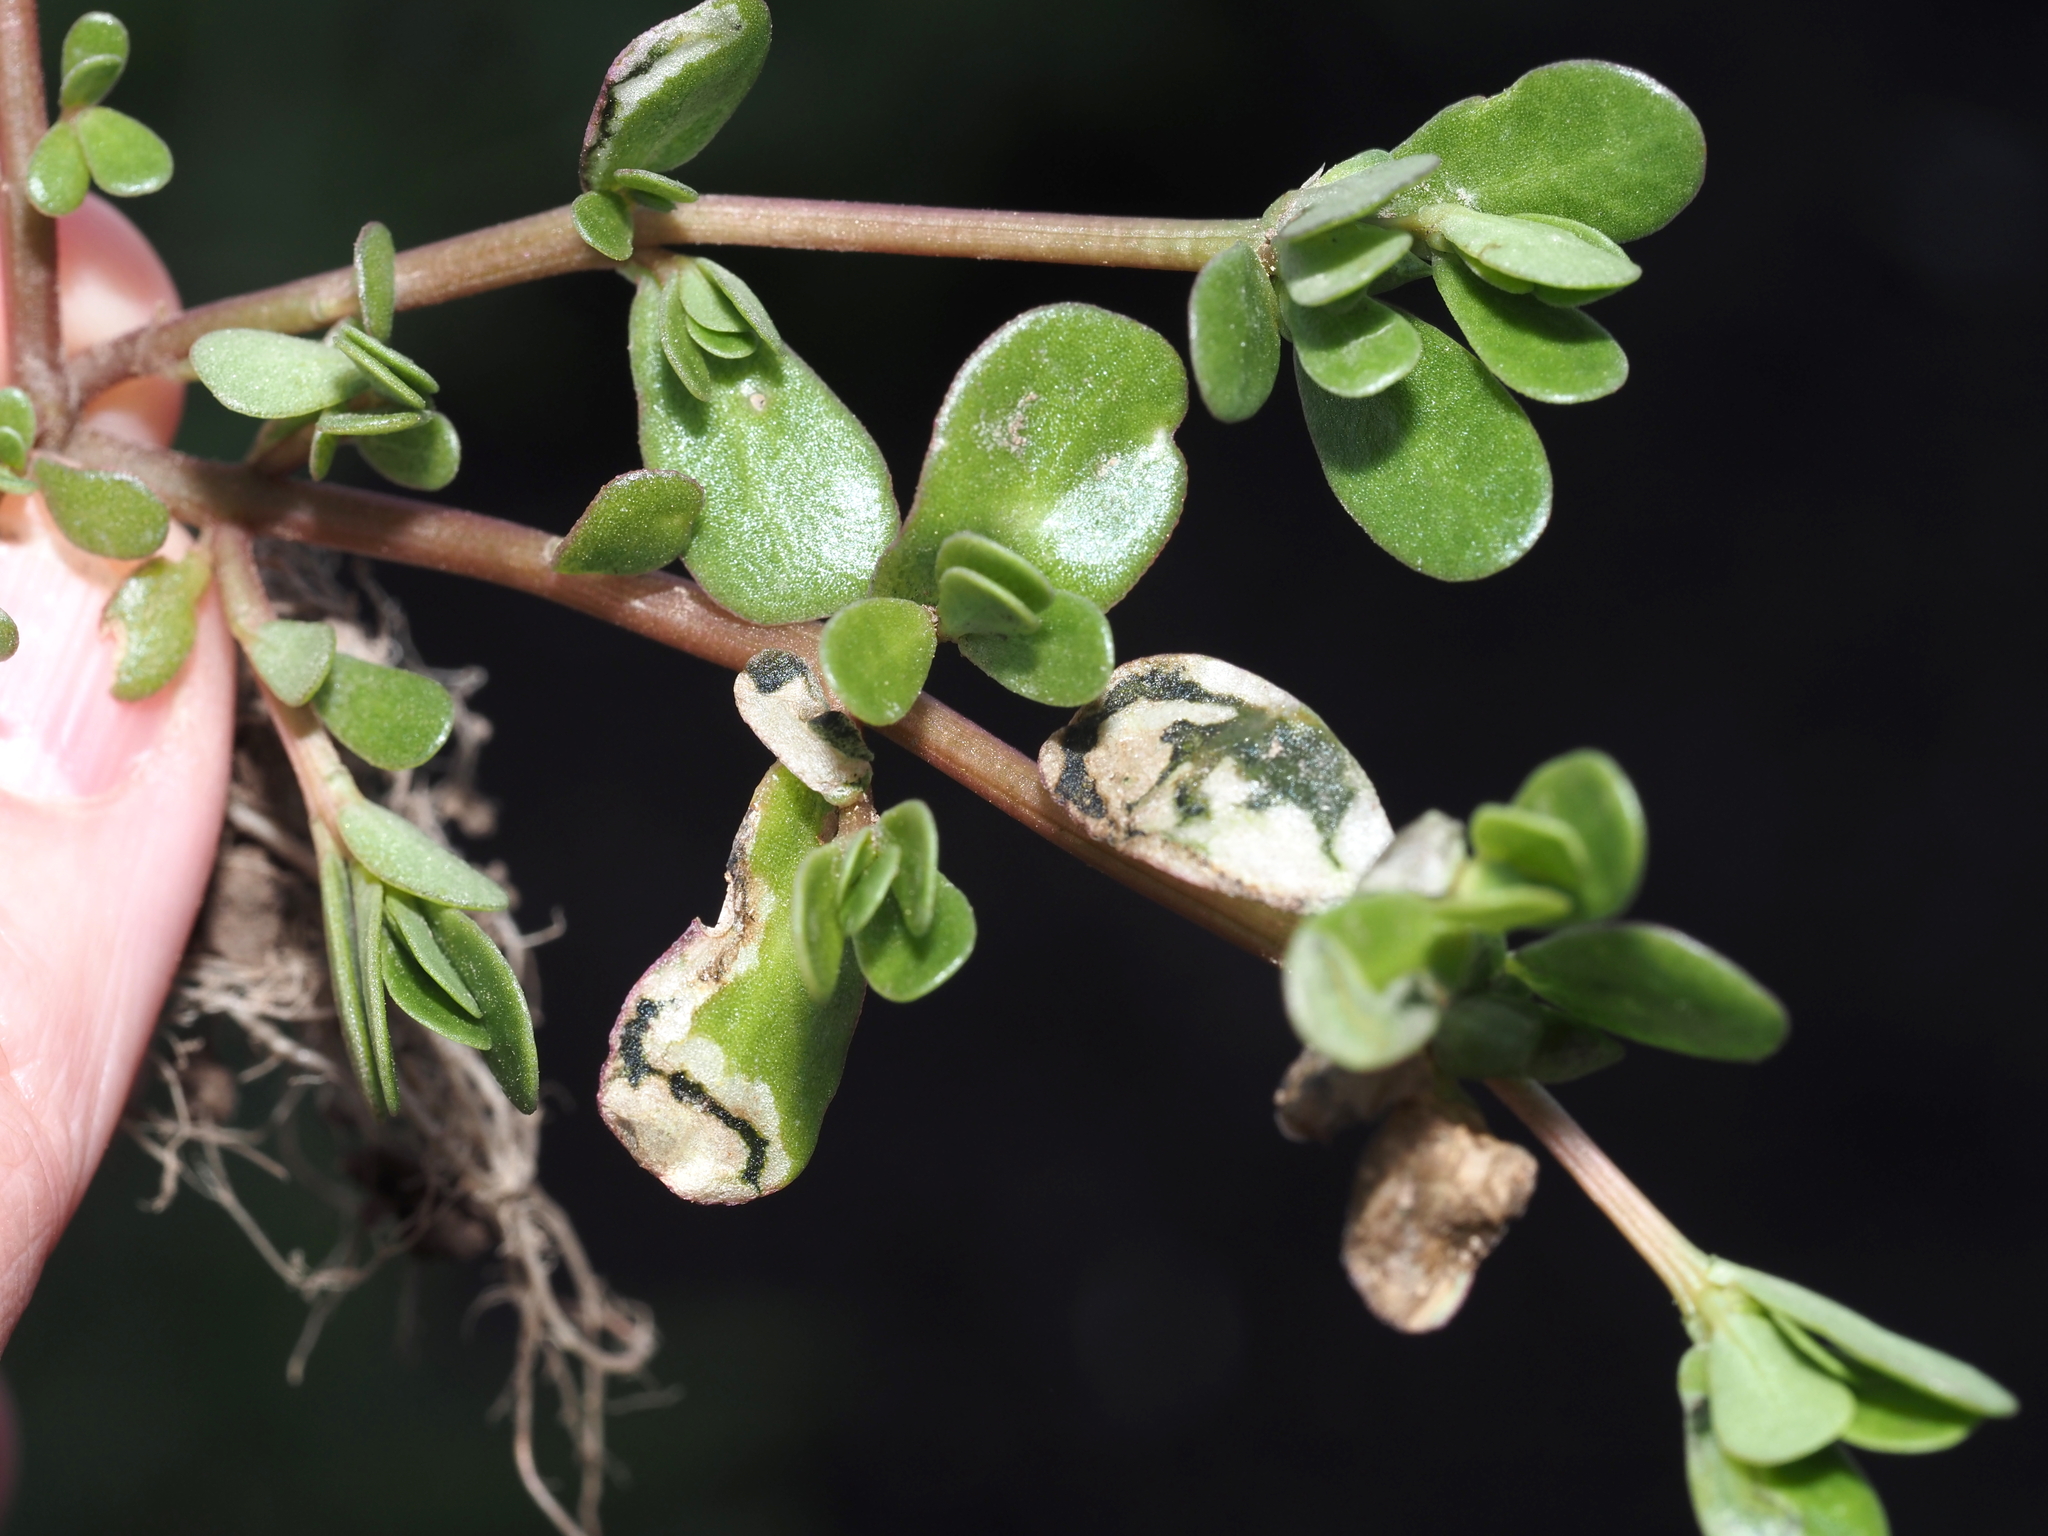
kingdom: Plantae
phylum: Tracheophyta
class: Magnoliopsida
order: Caryophyllales
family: Portulacaceae
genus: Portulaca
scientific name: Portulaca oleracea
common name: Common purslane
